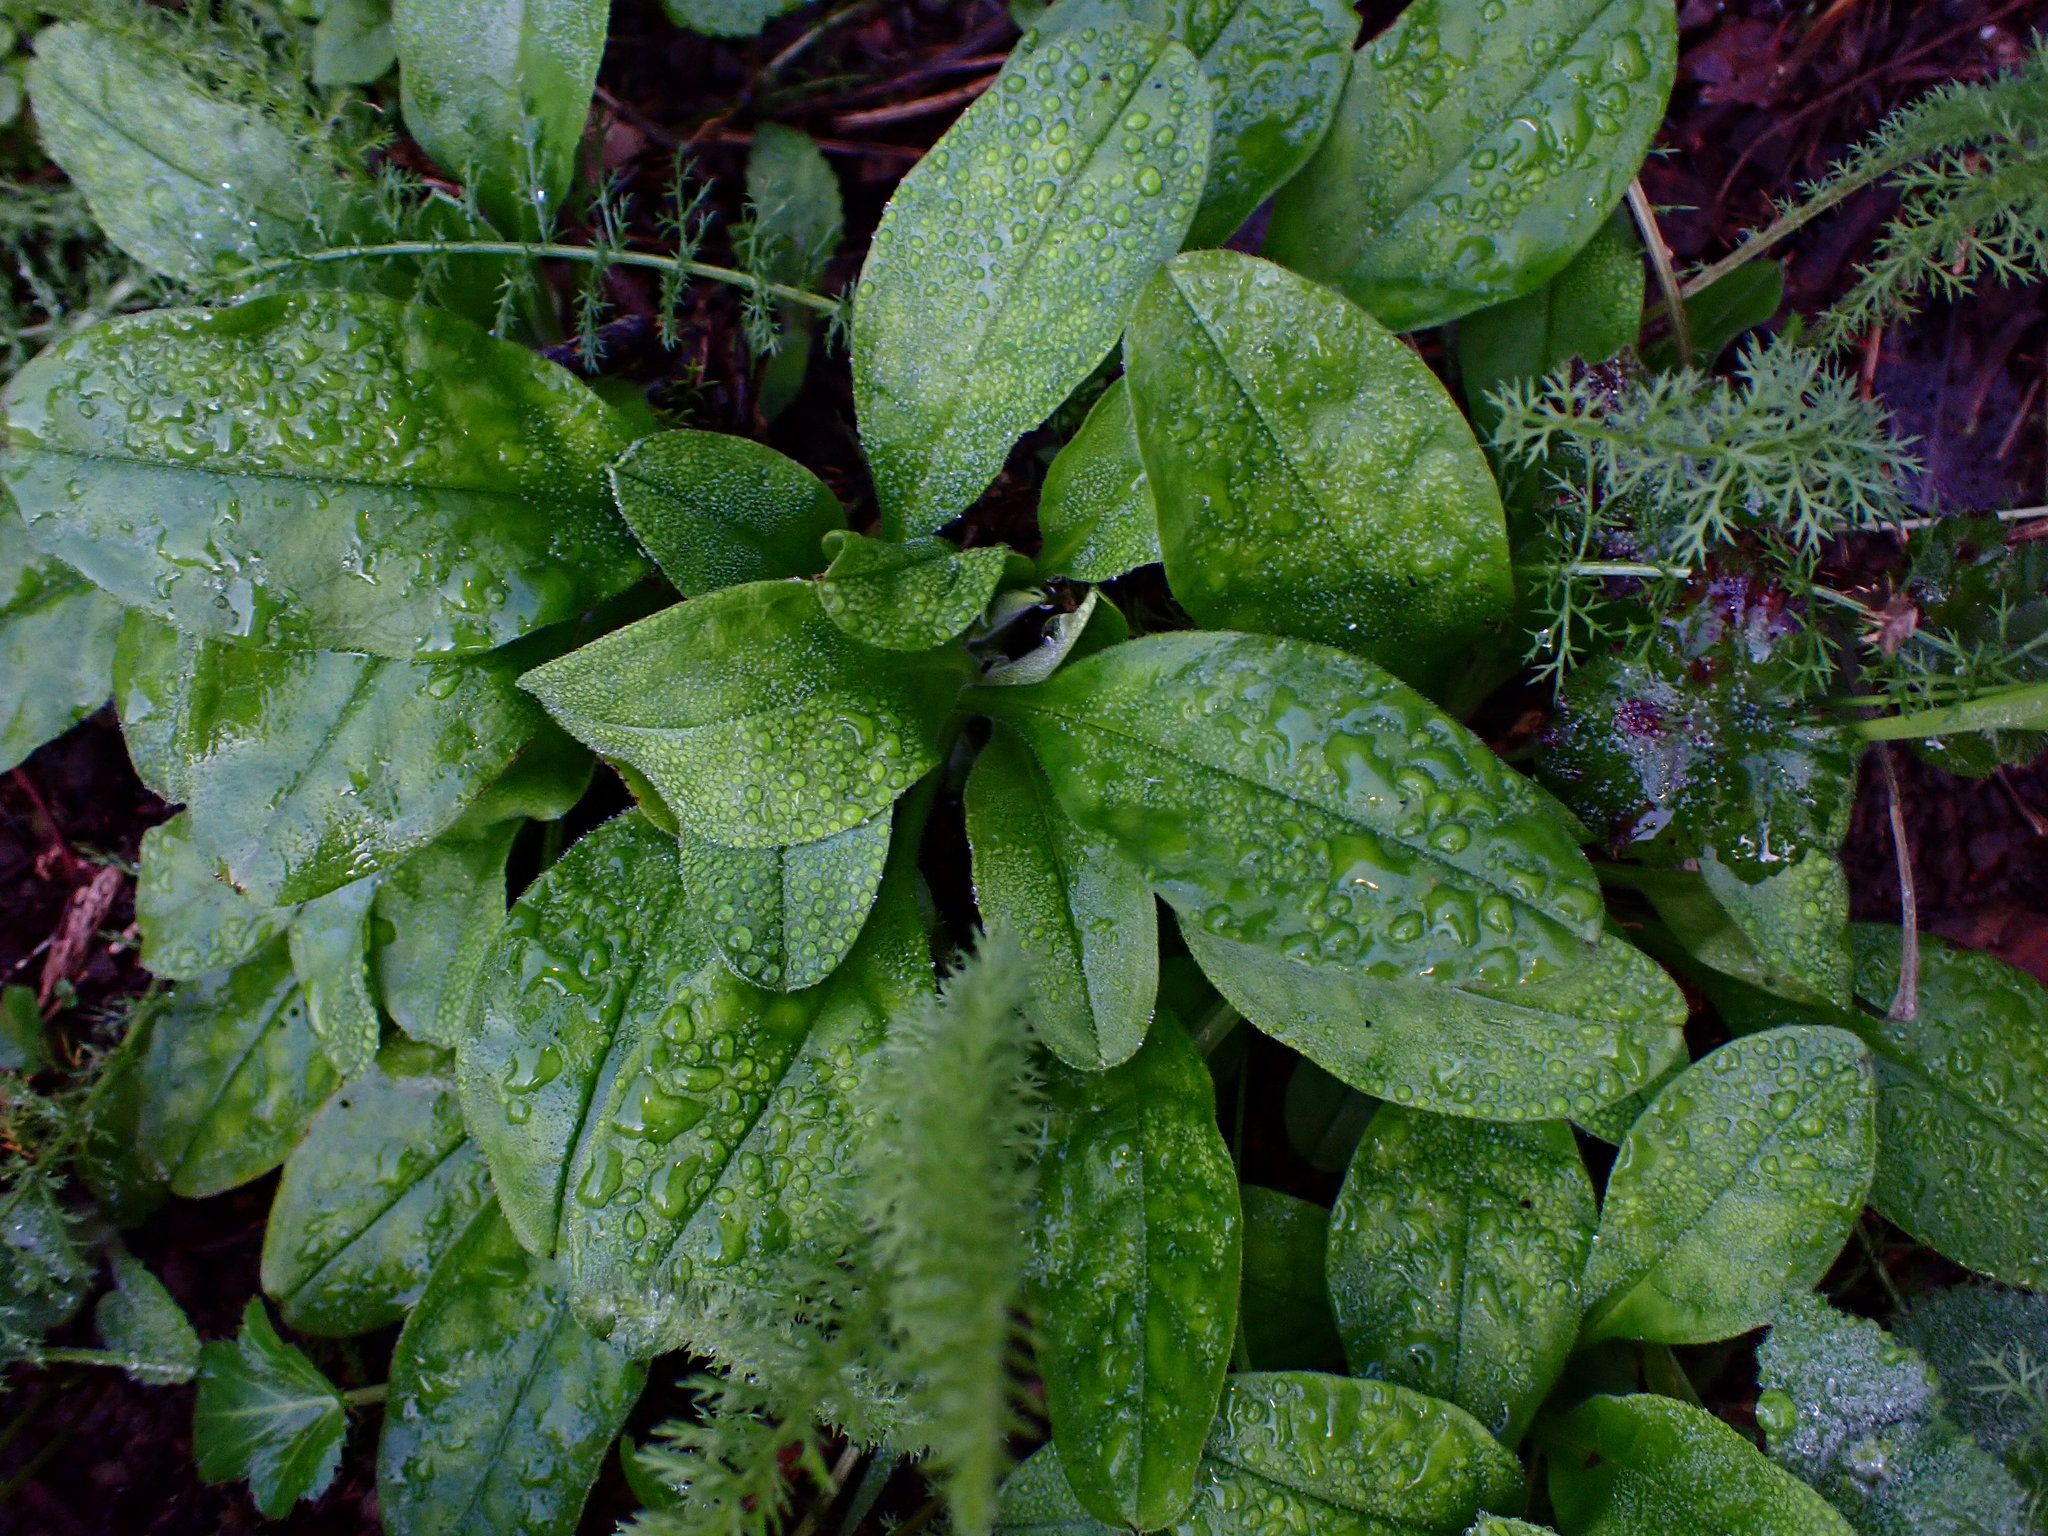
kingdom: Plantae
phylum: Tracheophyta
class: Magnoliopsida
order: Boraginales
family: Boraginaceae
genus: Myosotis
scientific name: Myosotis latifolia
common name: Broadleaf forget-me-not
